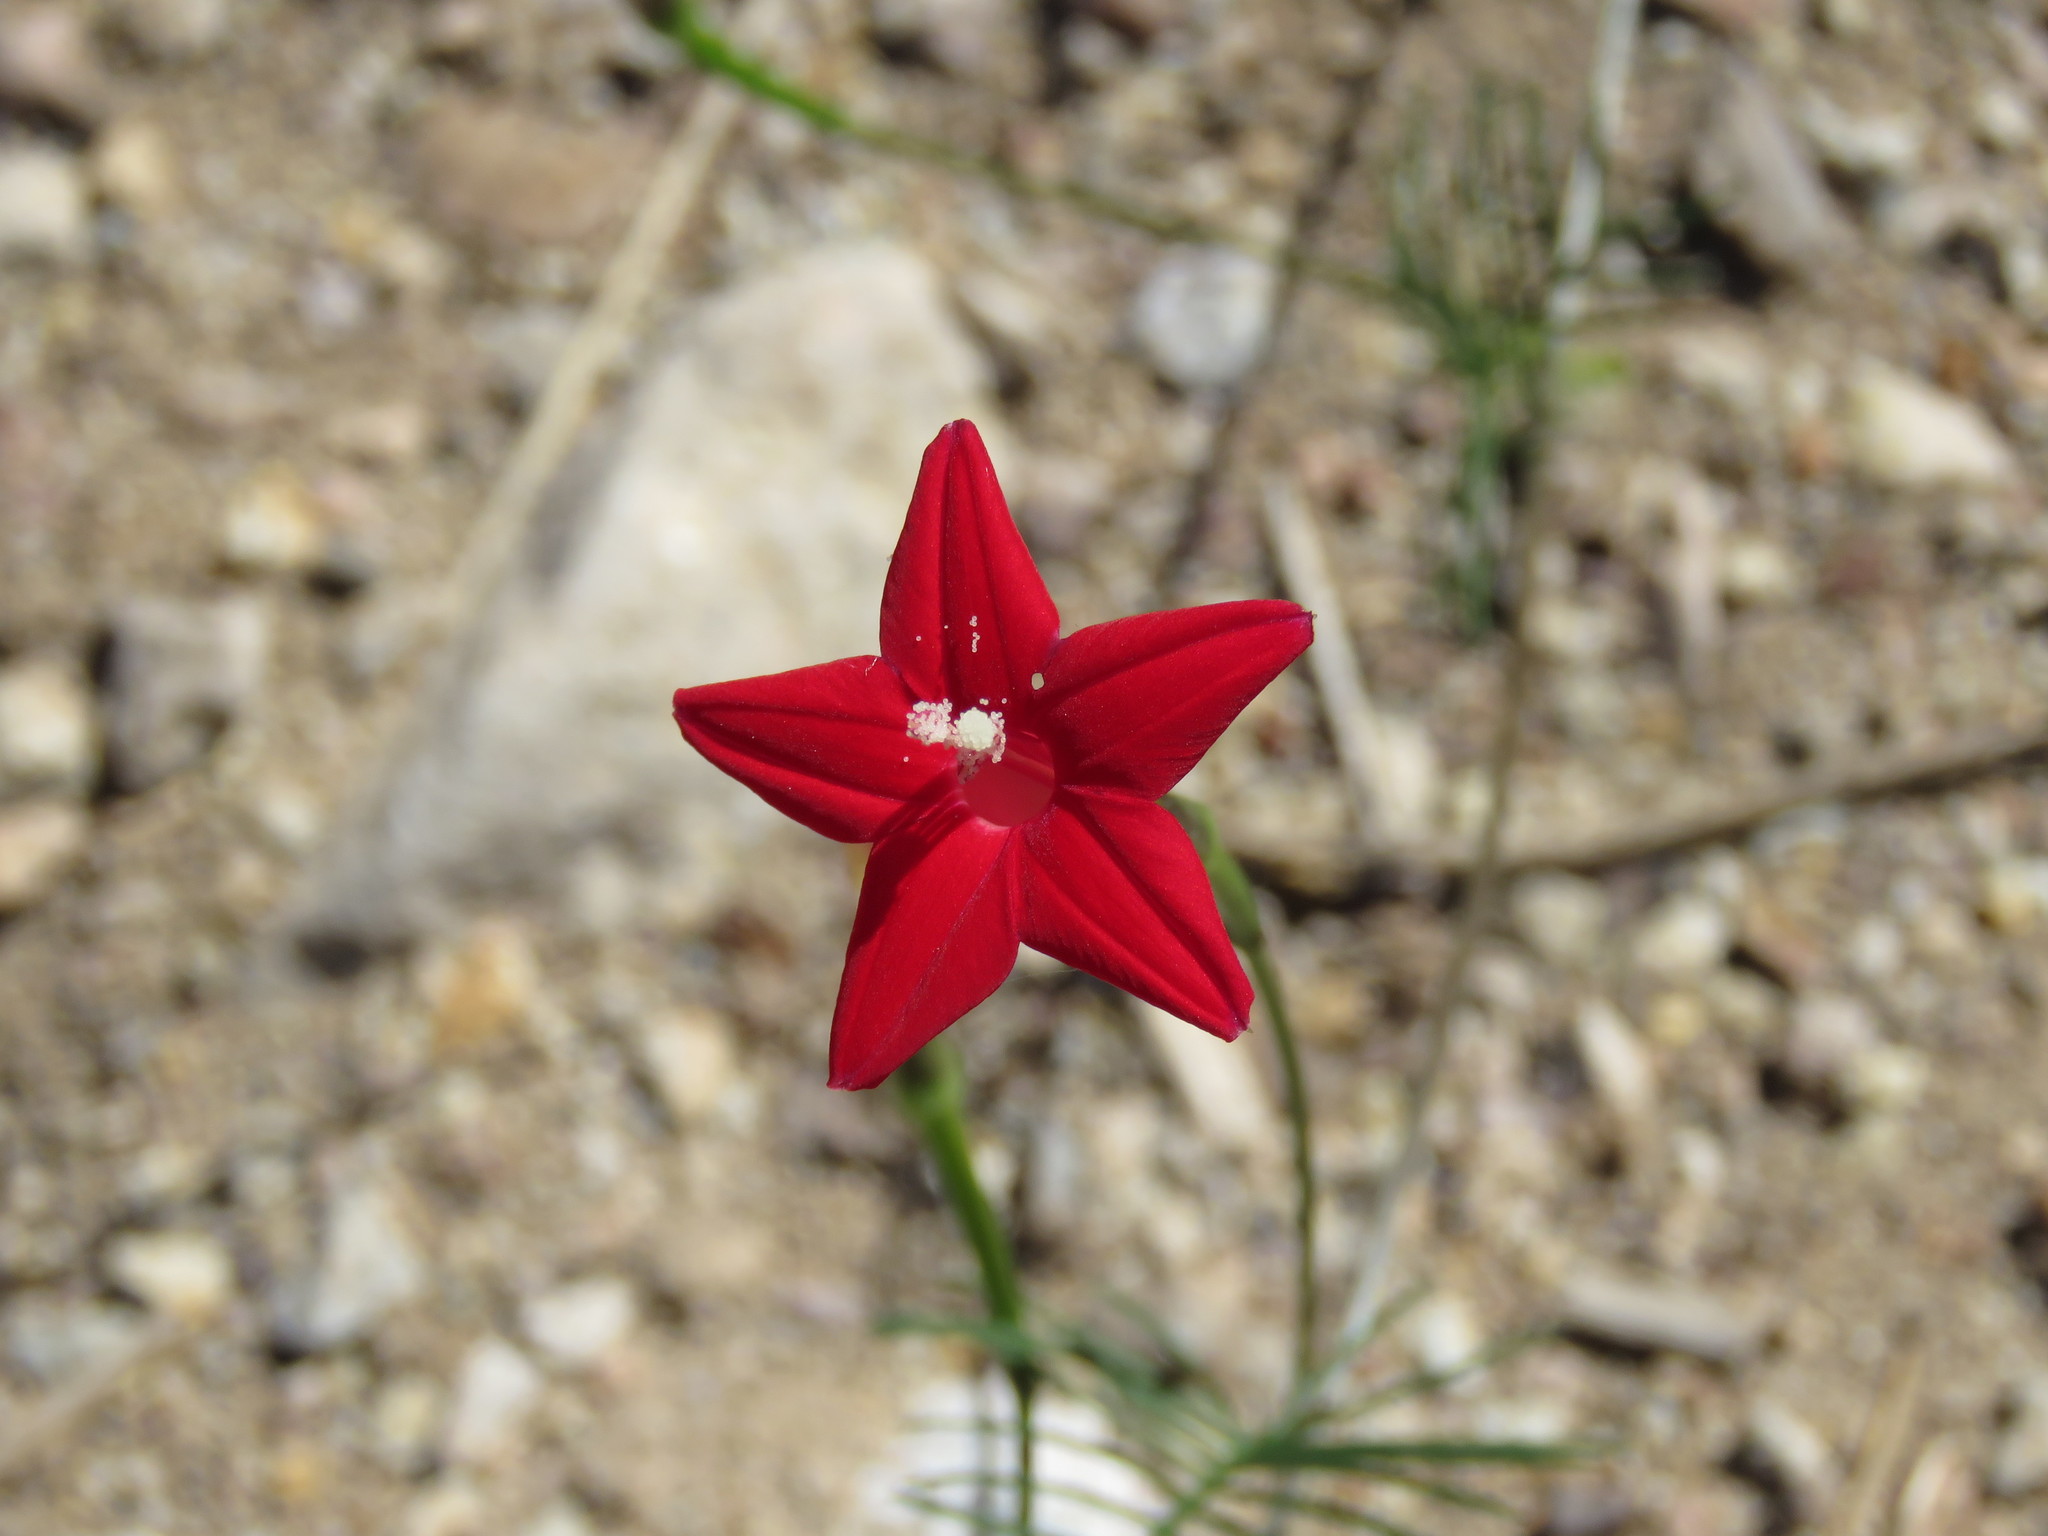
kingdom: Plantae
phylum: Tracheophyta
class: Magnoliopsida
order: Solanales
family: Convolvulaceae
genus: Ipomoea
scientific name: Ipomoea quamoclit
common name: Cypress vine
